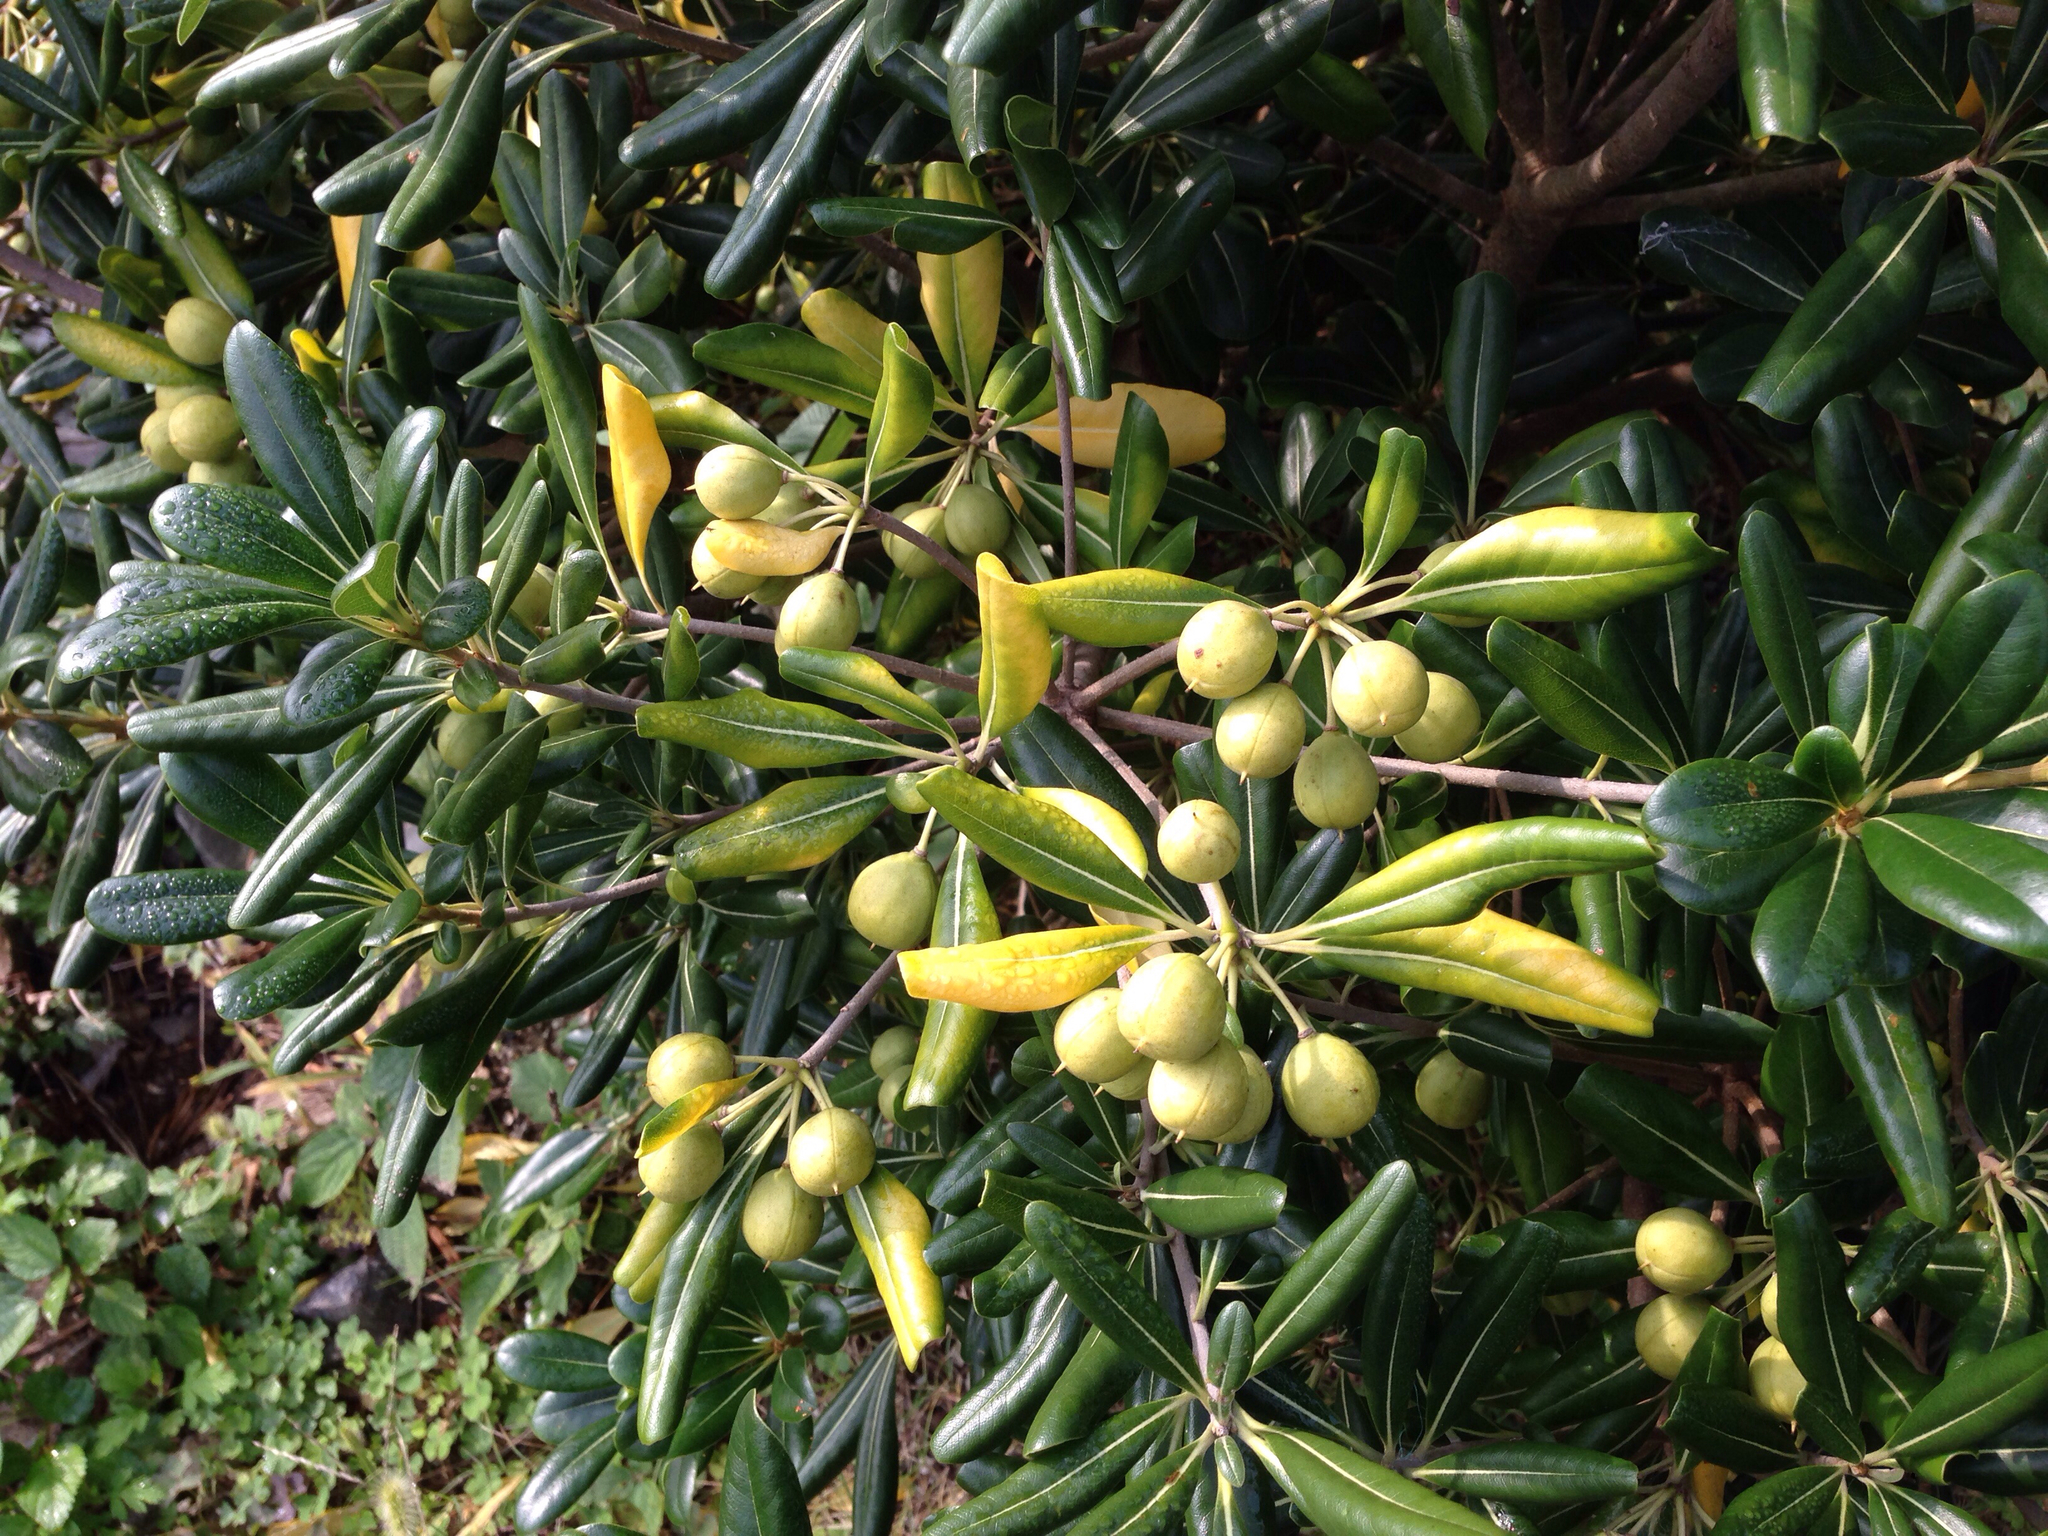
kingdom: Plantae
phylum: Tracheophyta
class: Magnoliopsida
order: Apiales
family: Pittosporaceae
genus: Pittosporum
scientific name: Pittosporum tobira
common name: Japanese cheesewood
